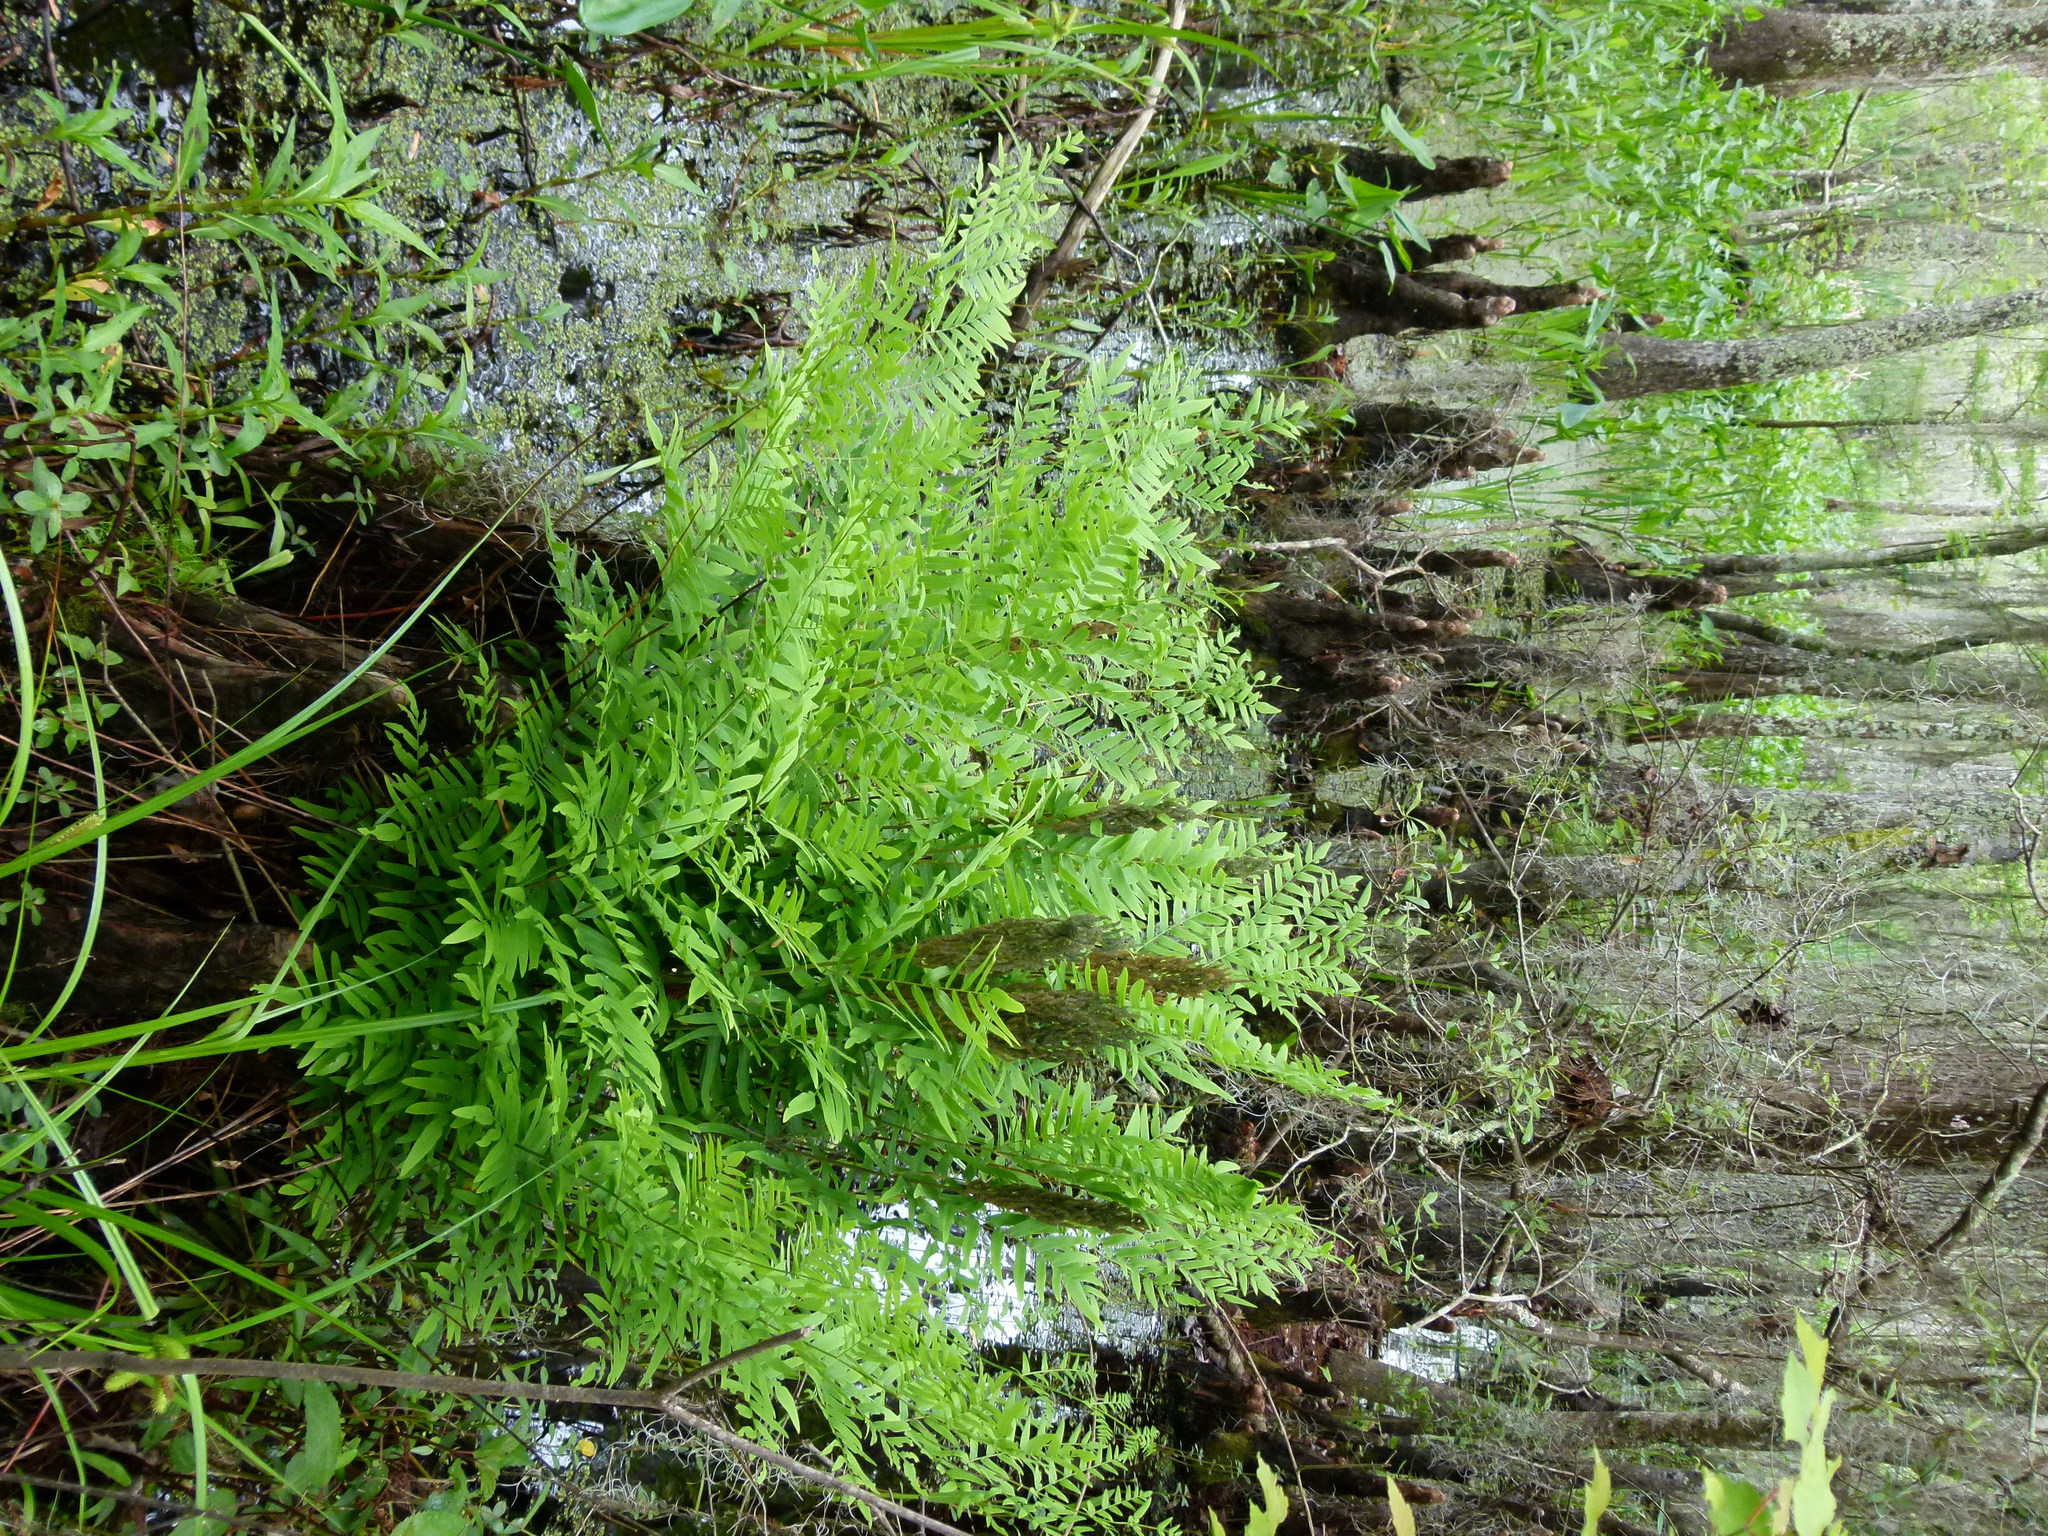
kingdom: Plantae
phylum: Tracheophyta
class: Polypodiopsida
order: Osmundales
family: Osmundaceae
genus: Osmunda
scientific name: Osmunda spectabilis
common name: American royal fern
